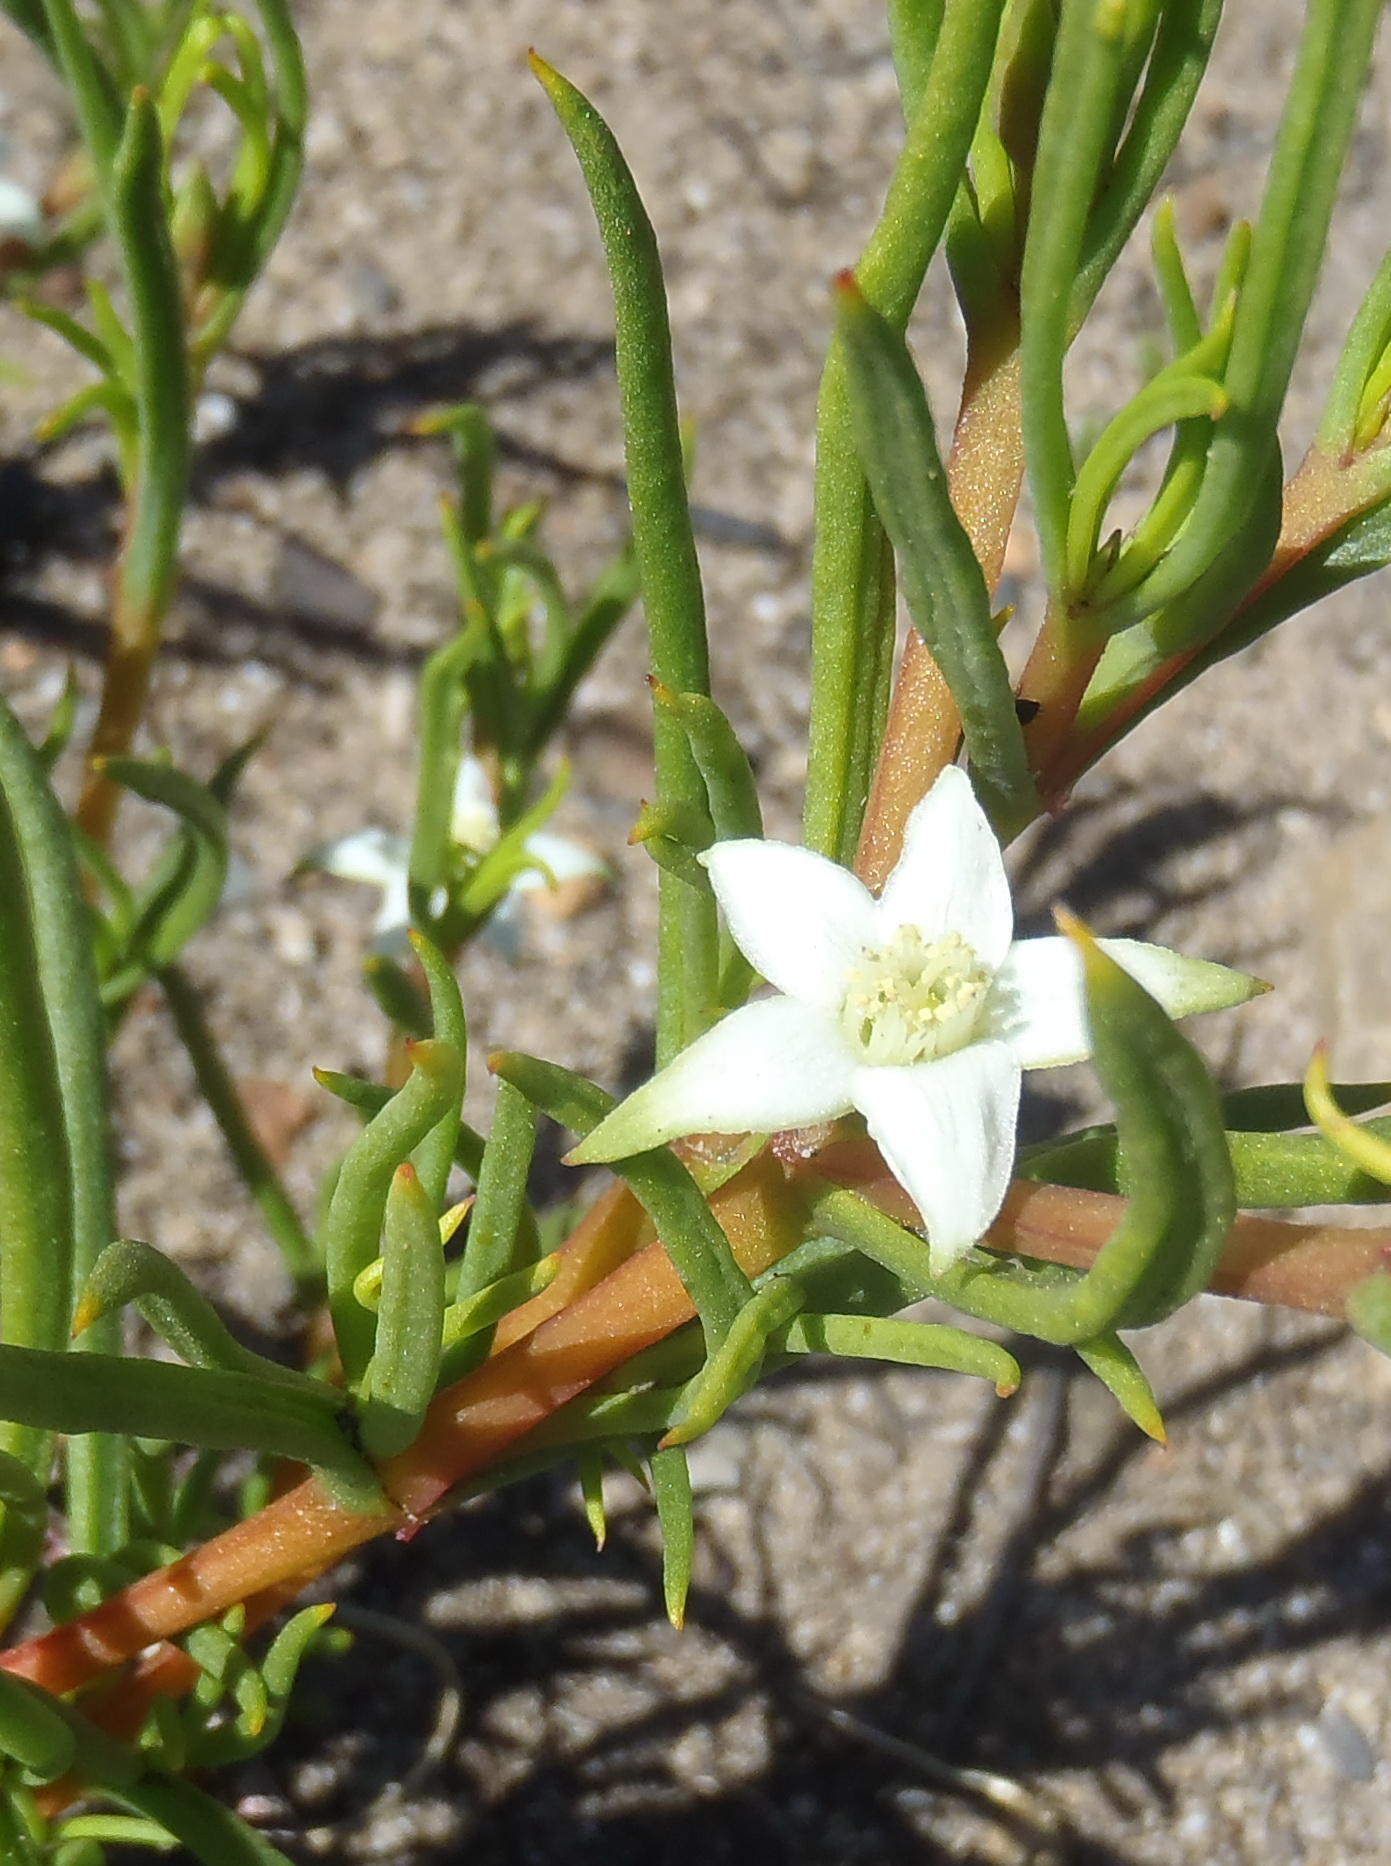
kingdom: Plantae
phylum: Tracheophyta
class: Magnoliopsida
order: Caryophyllales
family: Aizoaceae
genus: Aizoon
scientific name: Aizoon sarmentosum
